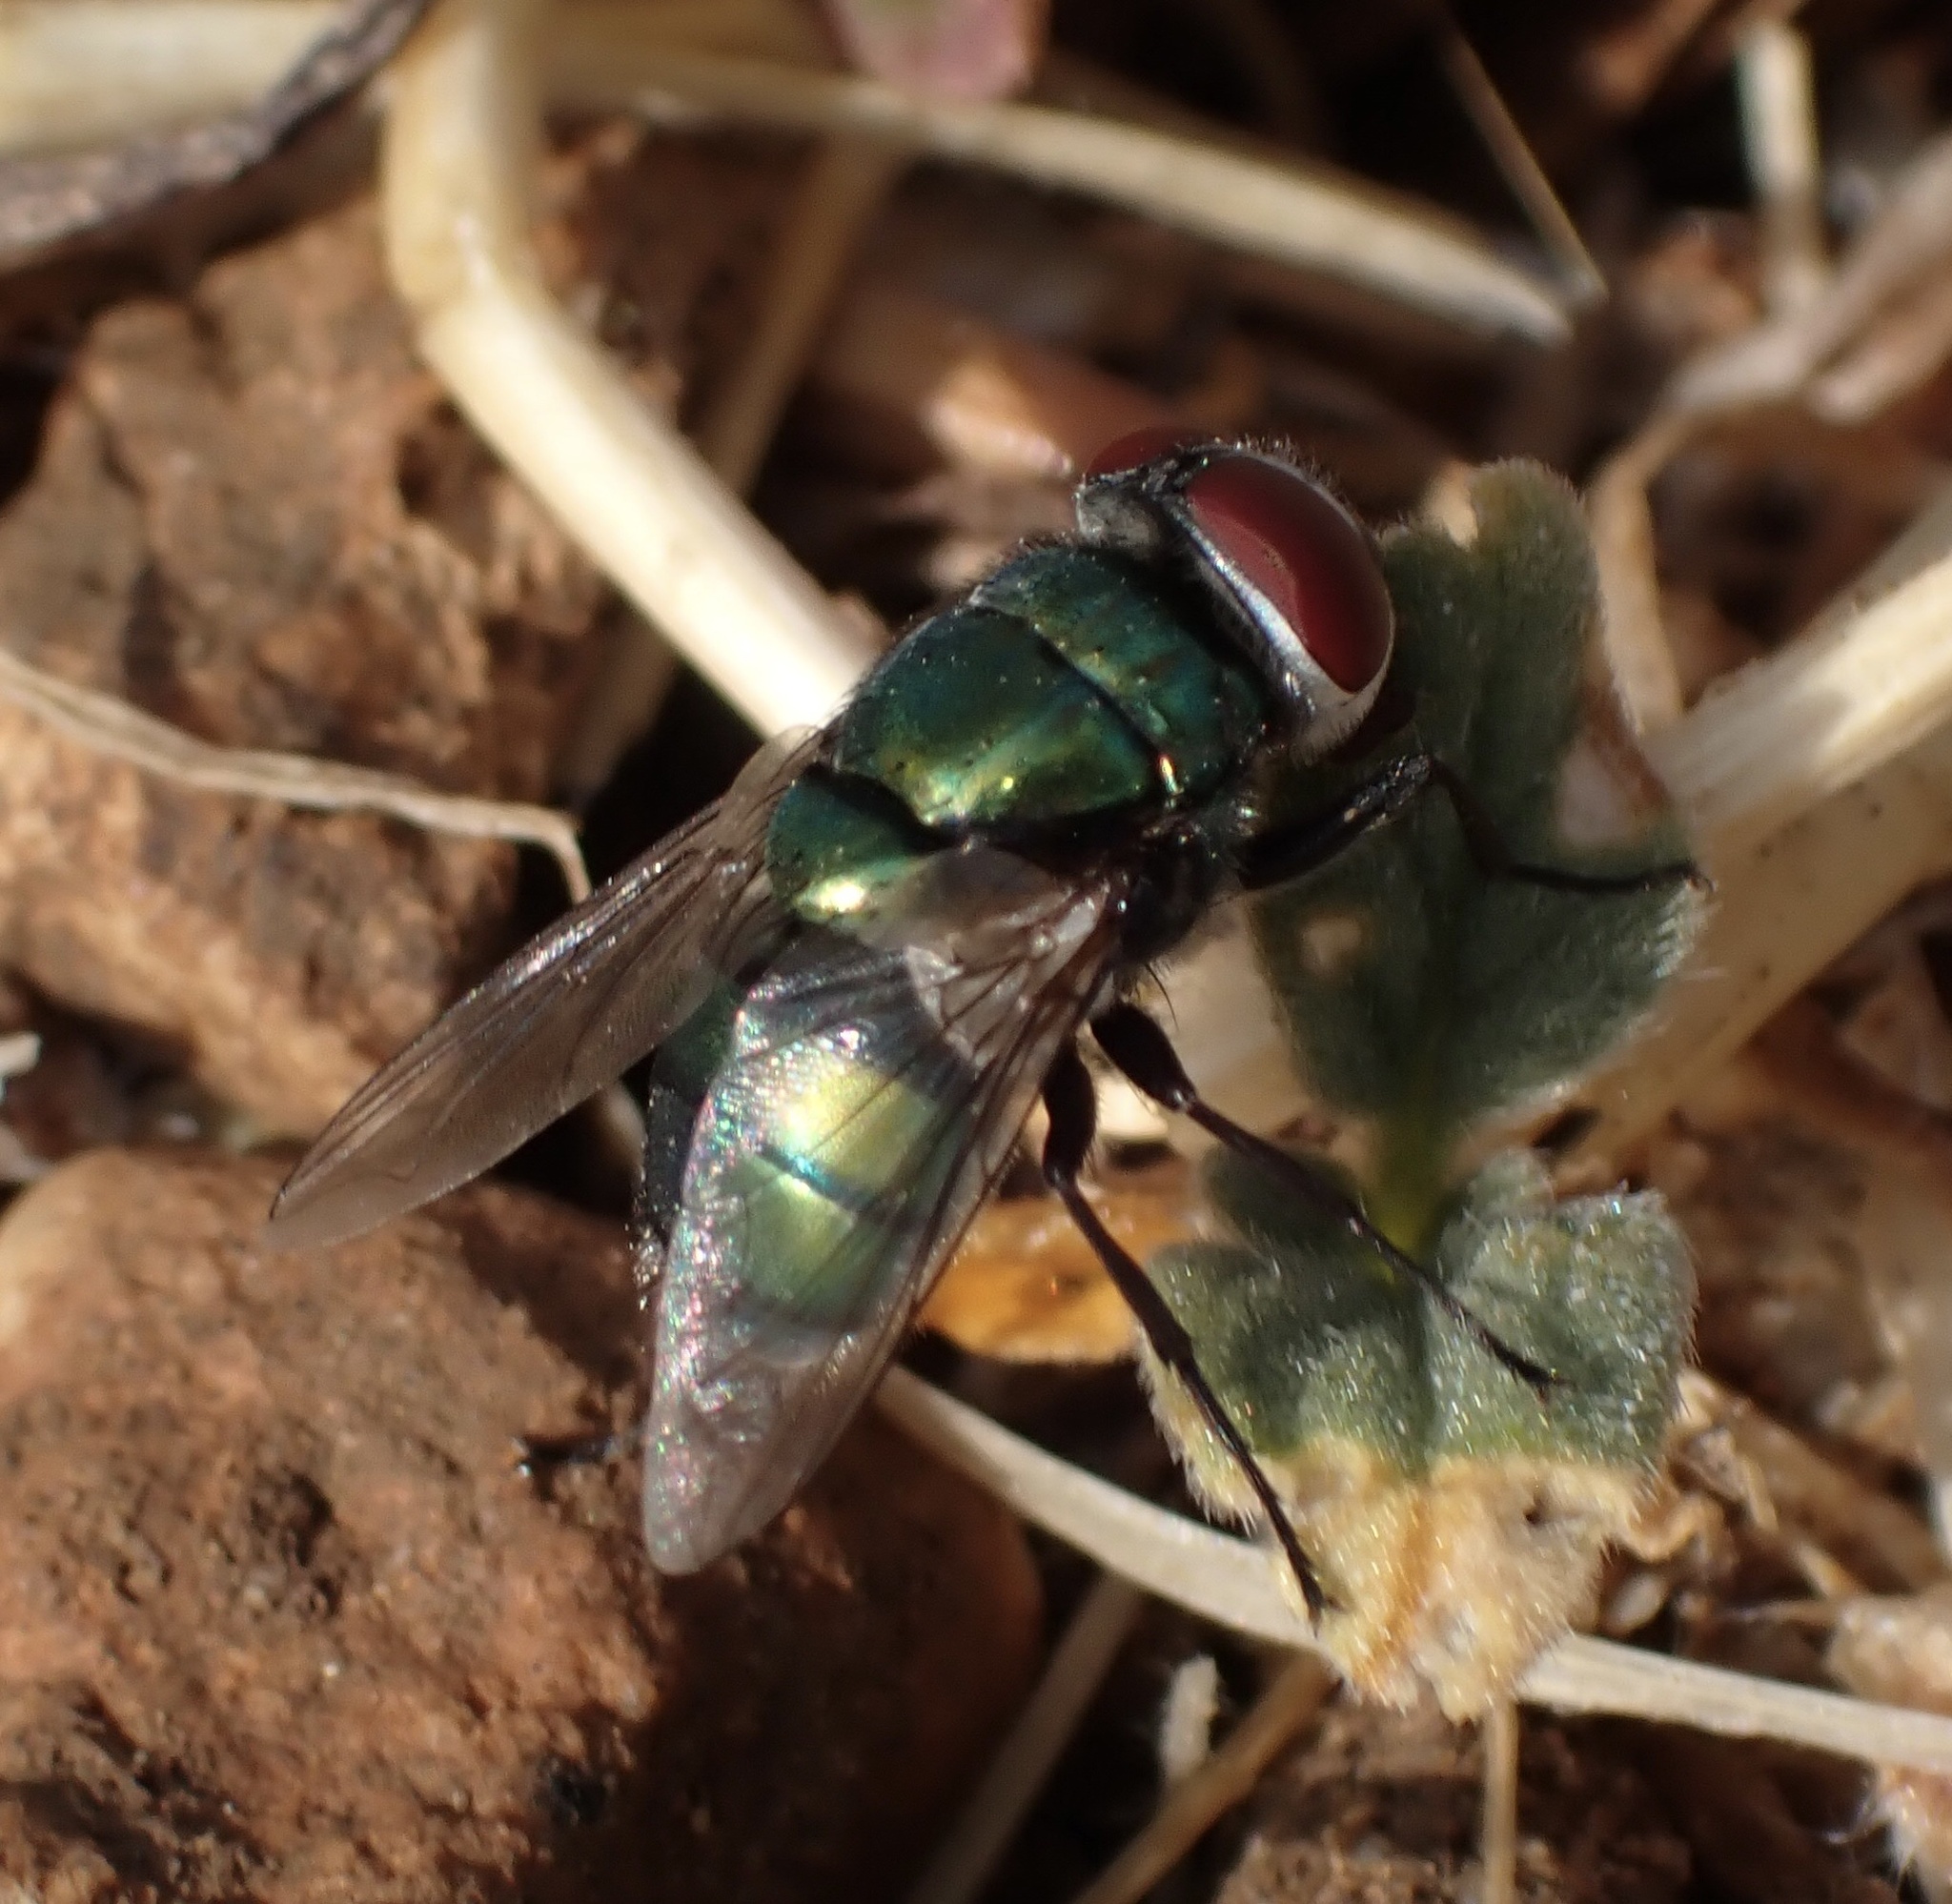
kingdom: Animalia
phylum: Arthropoda
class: Insecta
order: Diptera
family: Calliphoridae
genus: Chrysomya
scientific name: Chrysomya albiceps
